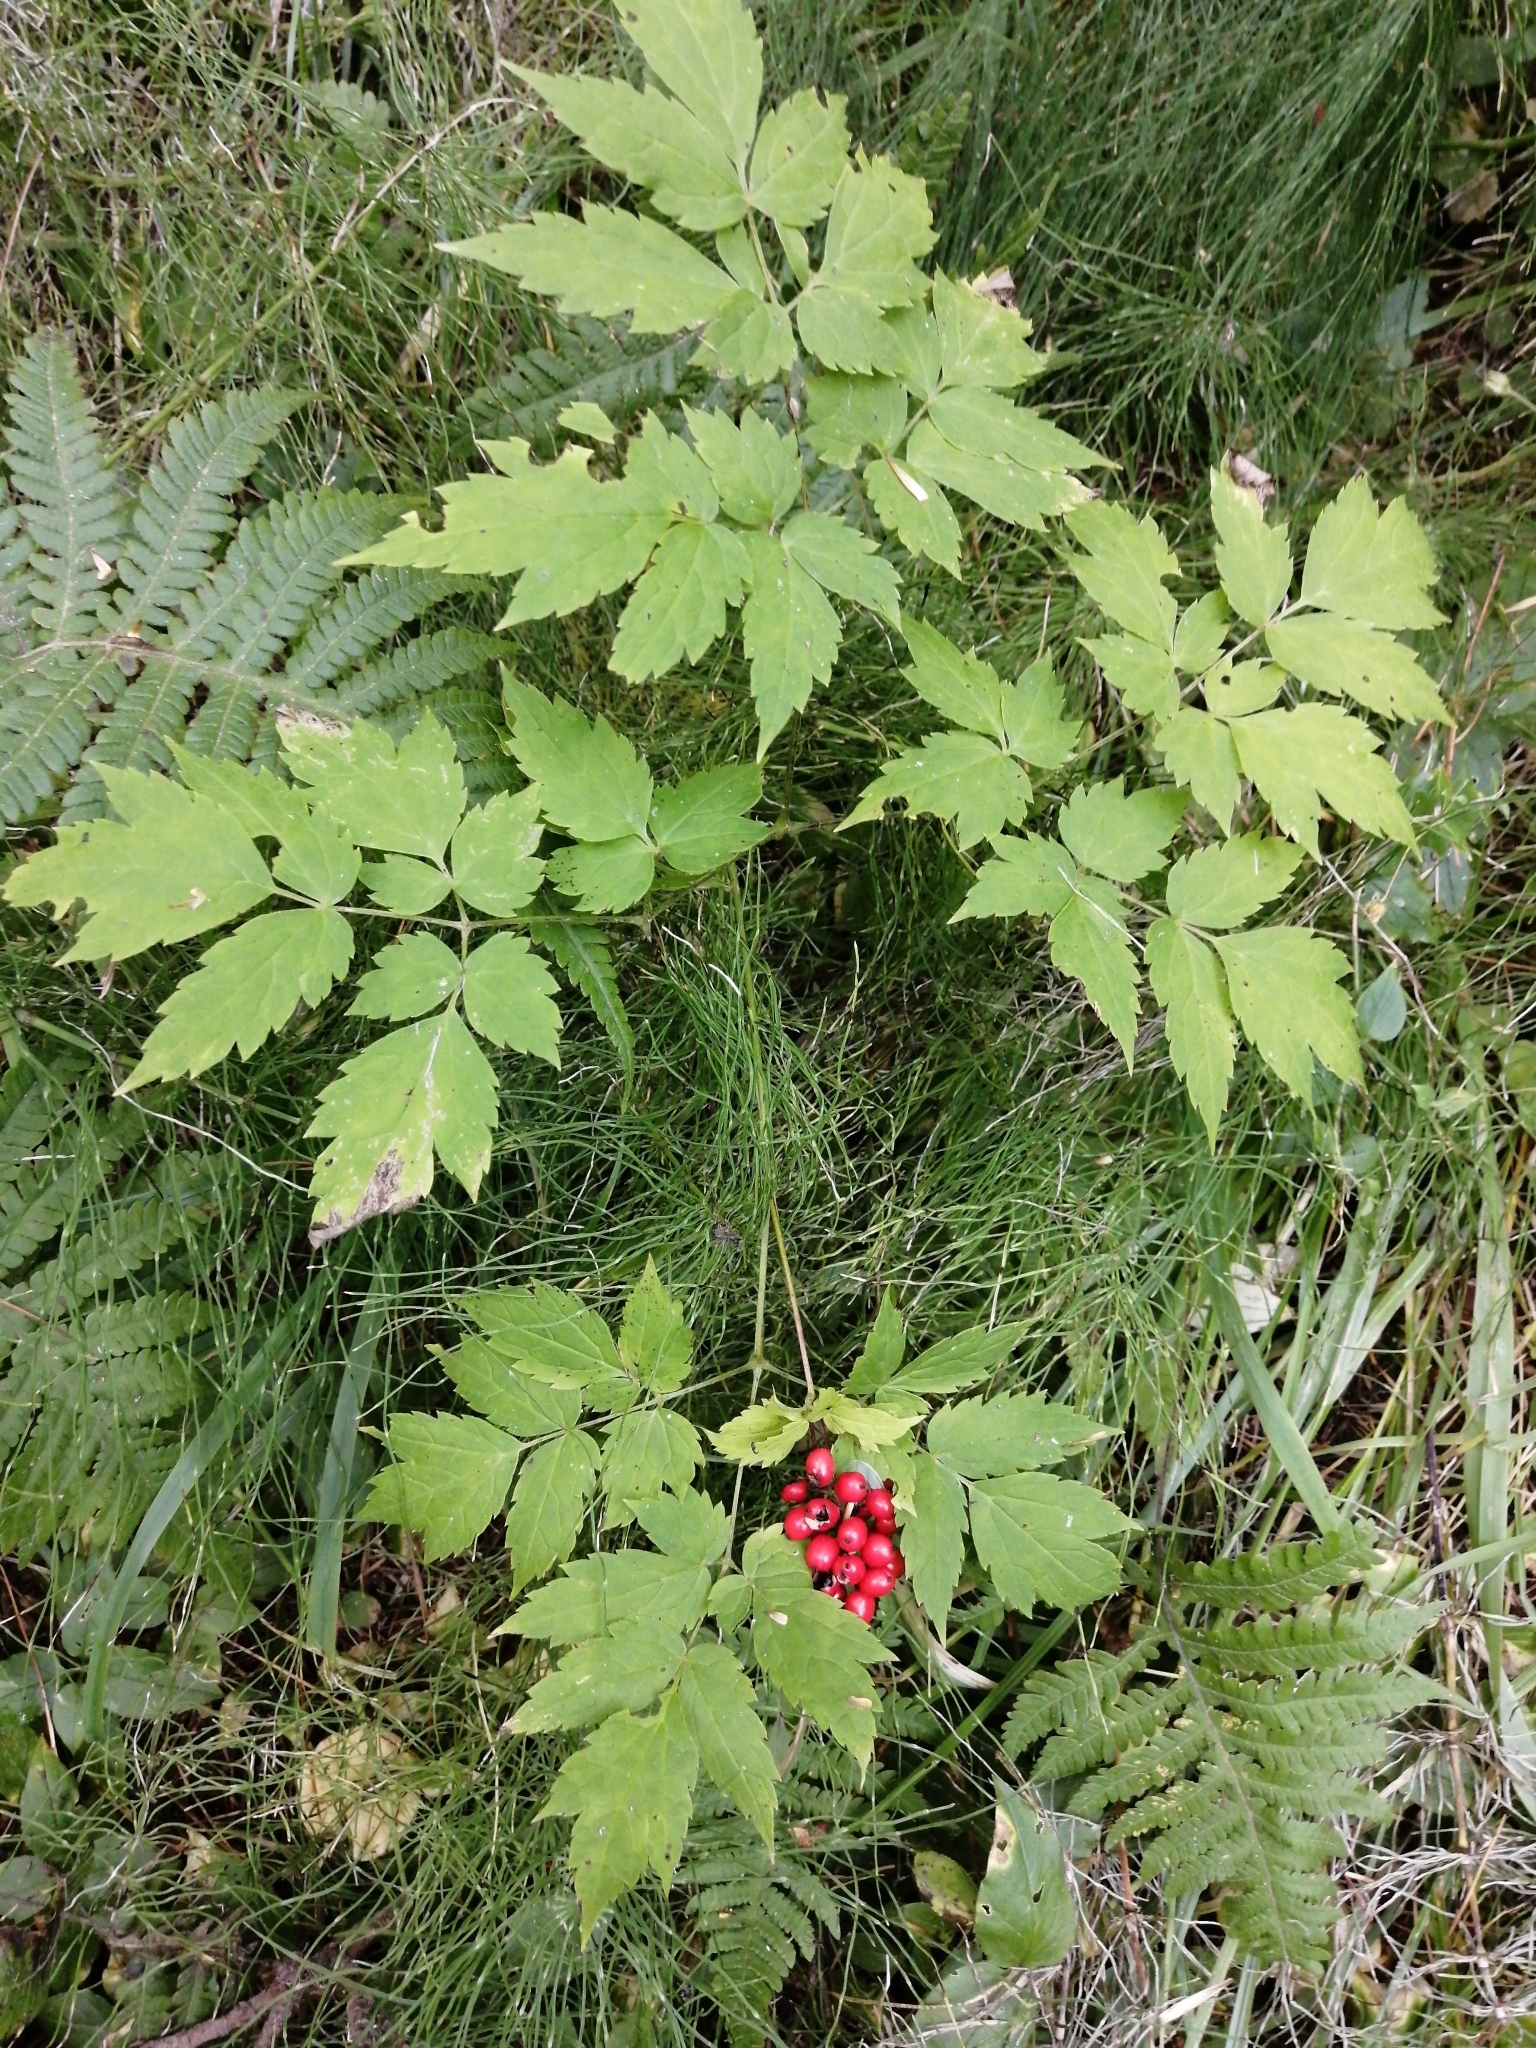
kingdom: Plantae
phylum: Tracheophyta
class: Magnoliopsida
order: Ranunculales
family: Ranunculaceae
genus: Actaea
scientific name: Actaea spicata
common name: Baneberry
